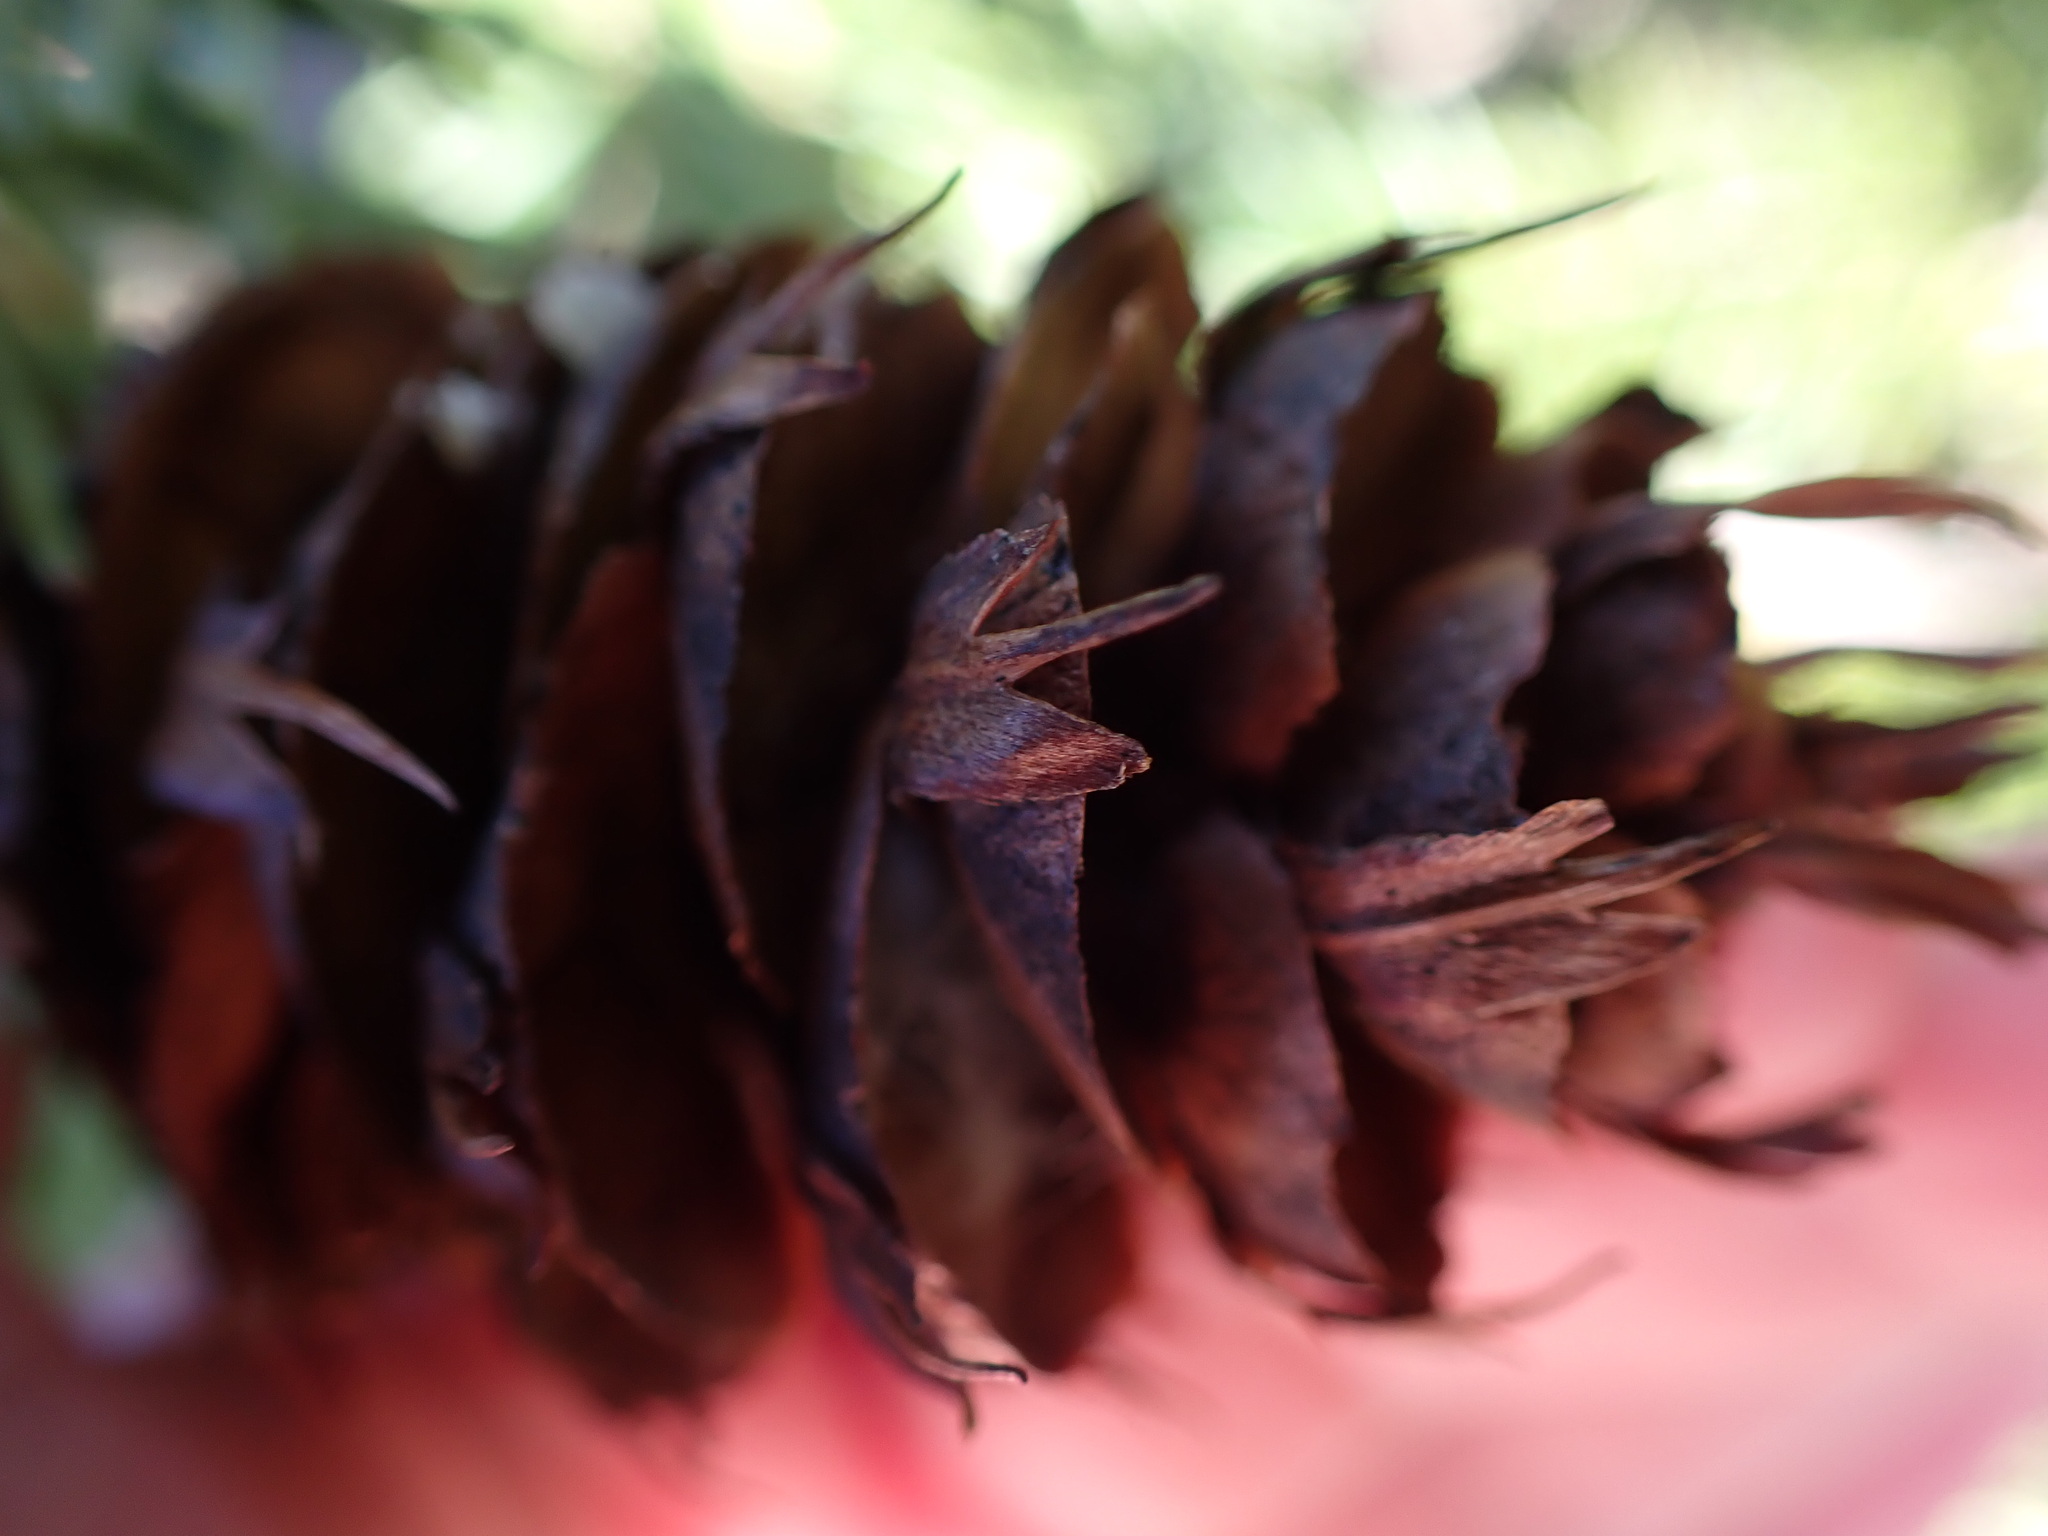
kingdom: Plantae
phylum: Tracheophyta
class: Pinopsida
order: Pinales
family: Pinaceae
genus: Pseudotsuga
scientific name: Pseudotsuga menziesii
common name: Douglas fir
